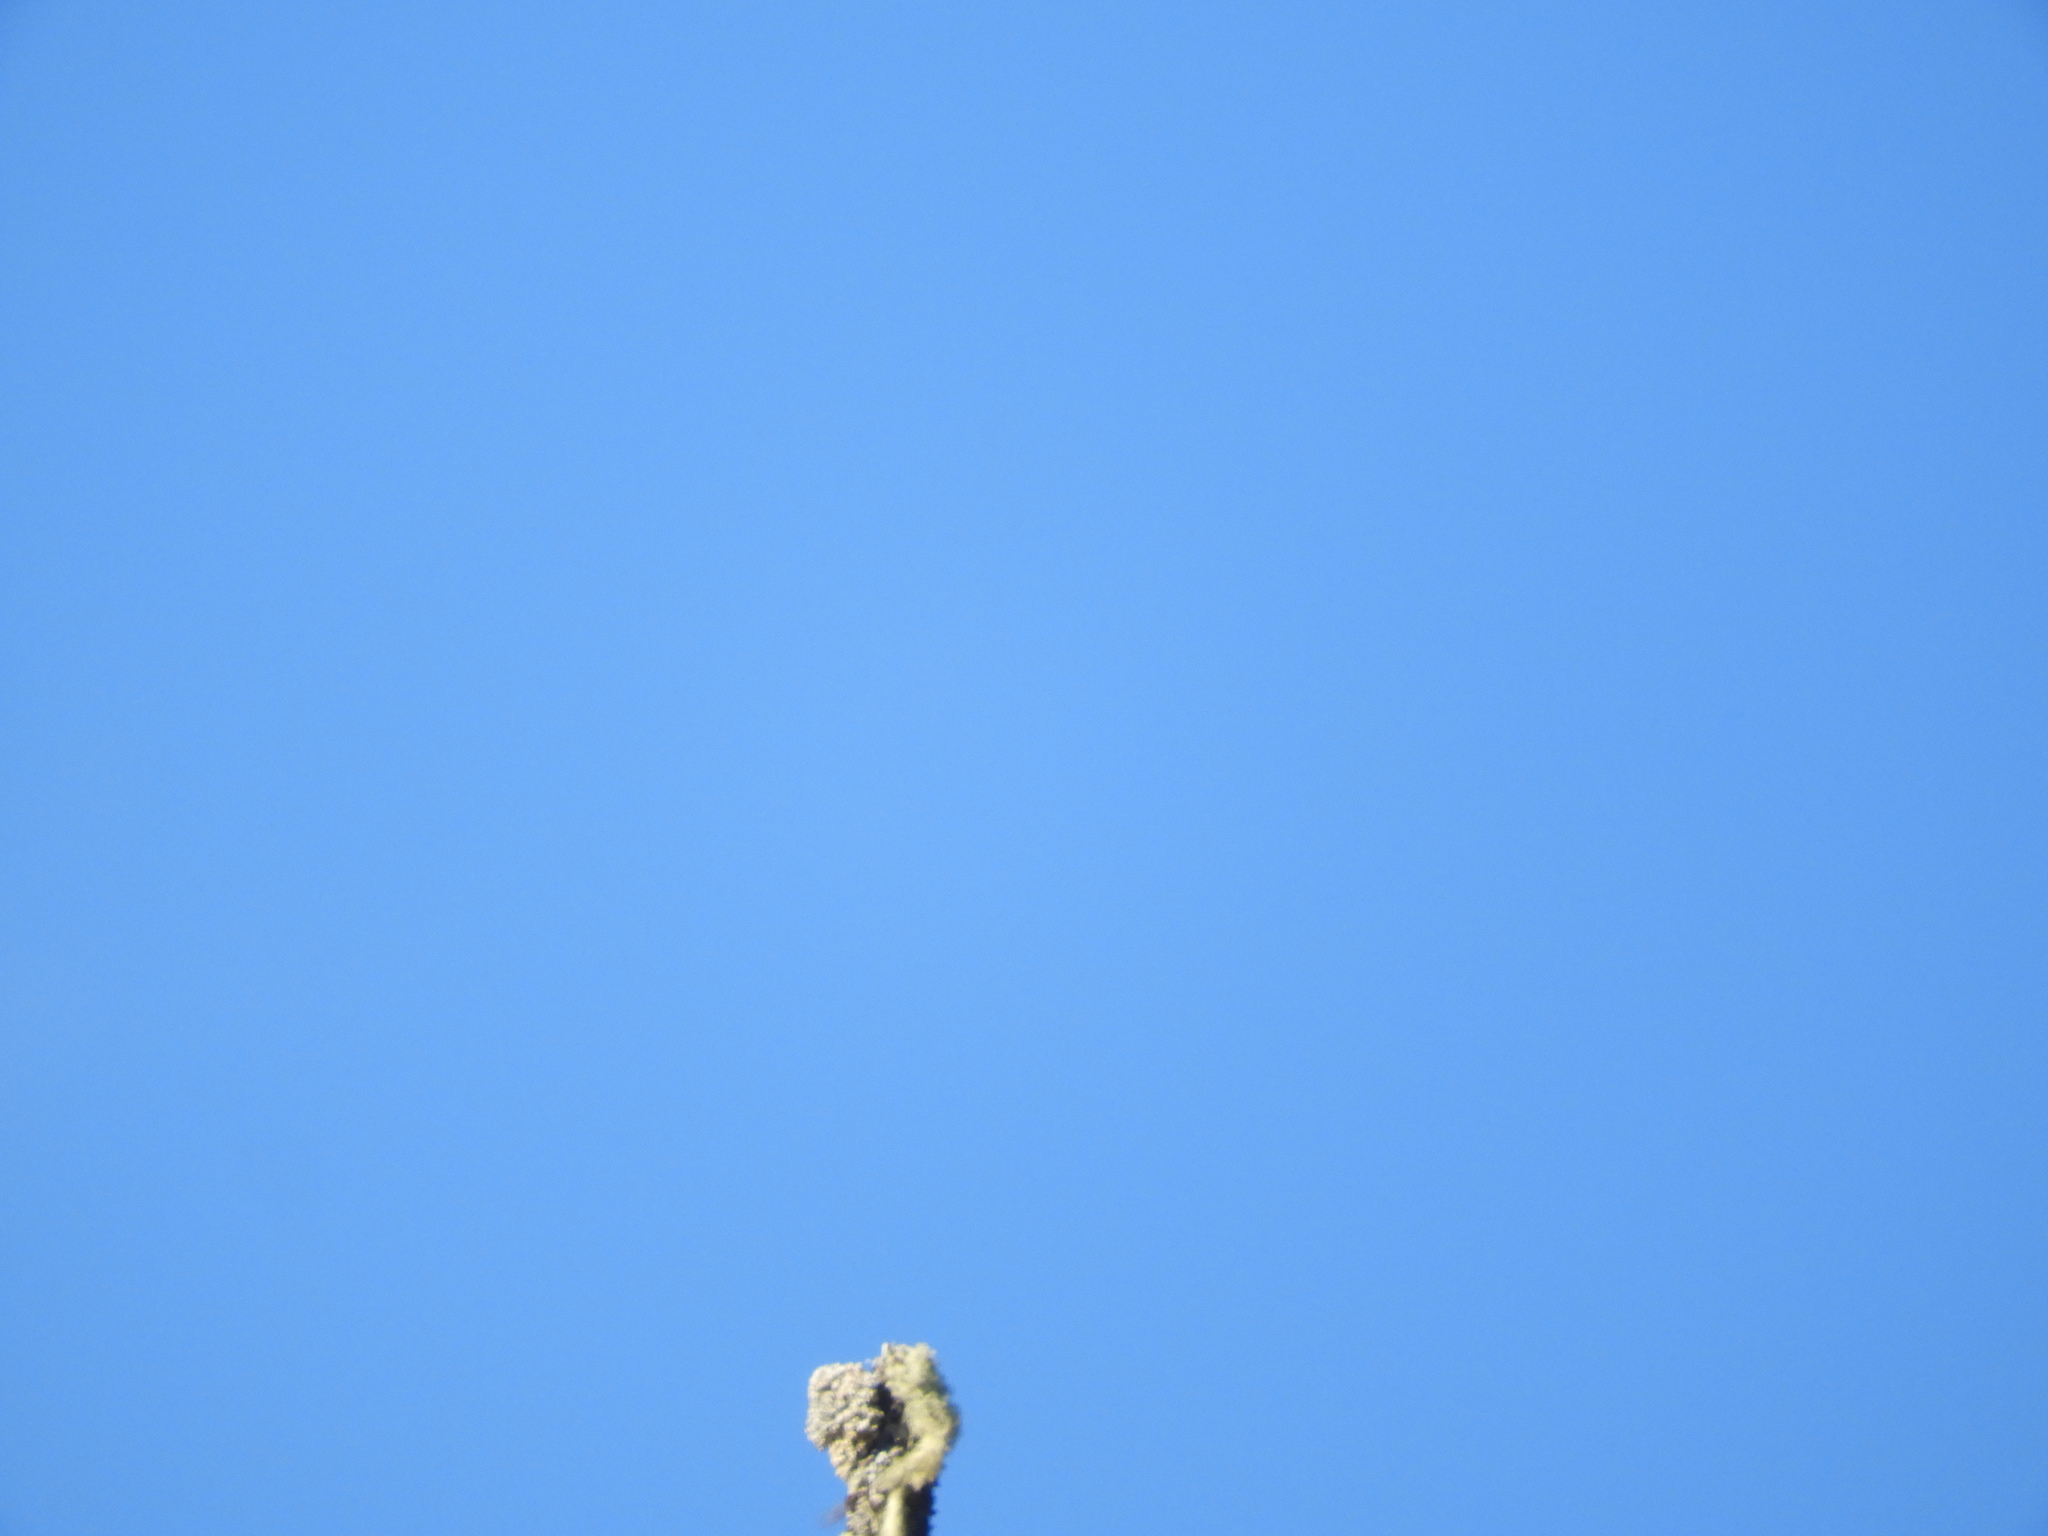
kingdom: Fungi
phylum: Ascomycota
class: Lecanoromycetes
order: Caliciales
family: Caliciaceae
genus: Acroscyphus
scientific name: Acroscyphus sphaerophoroides
